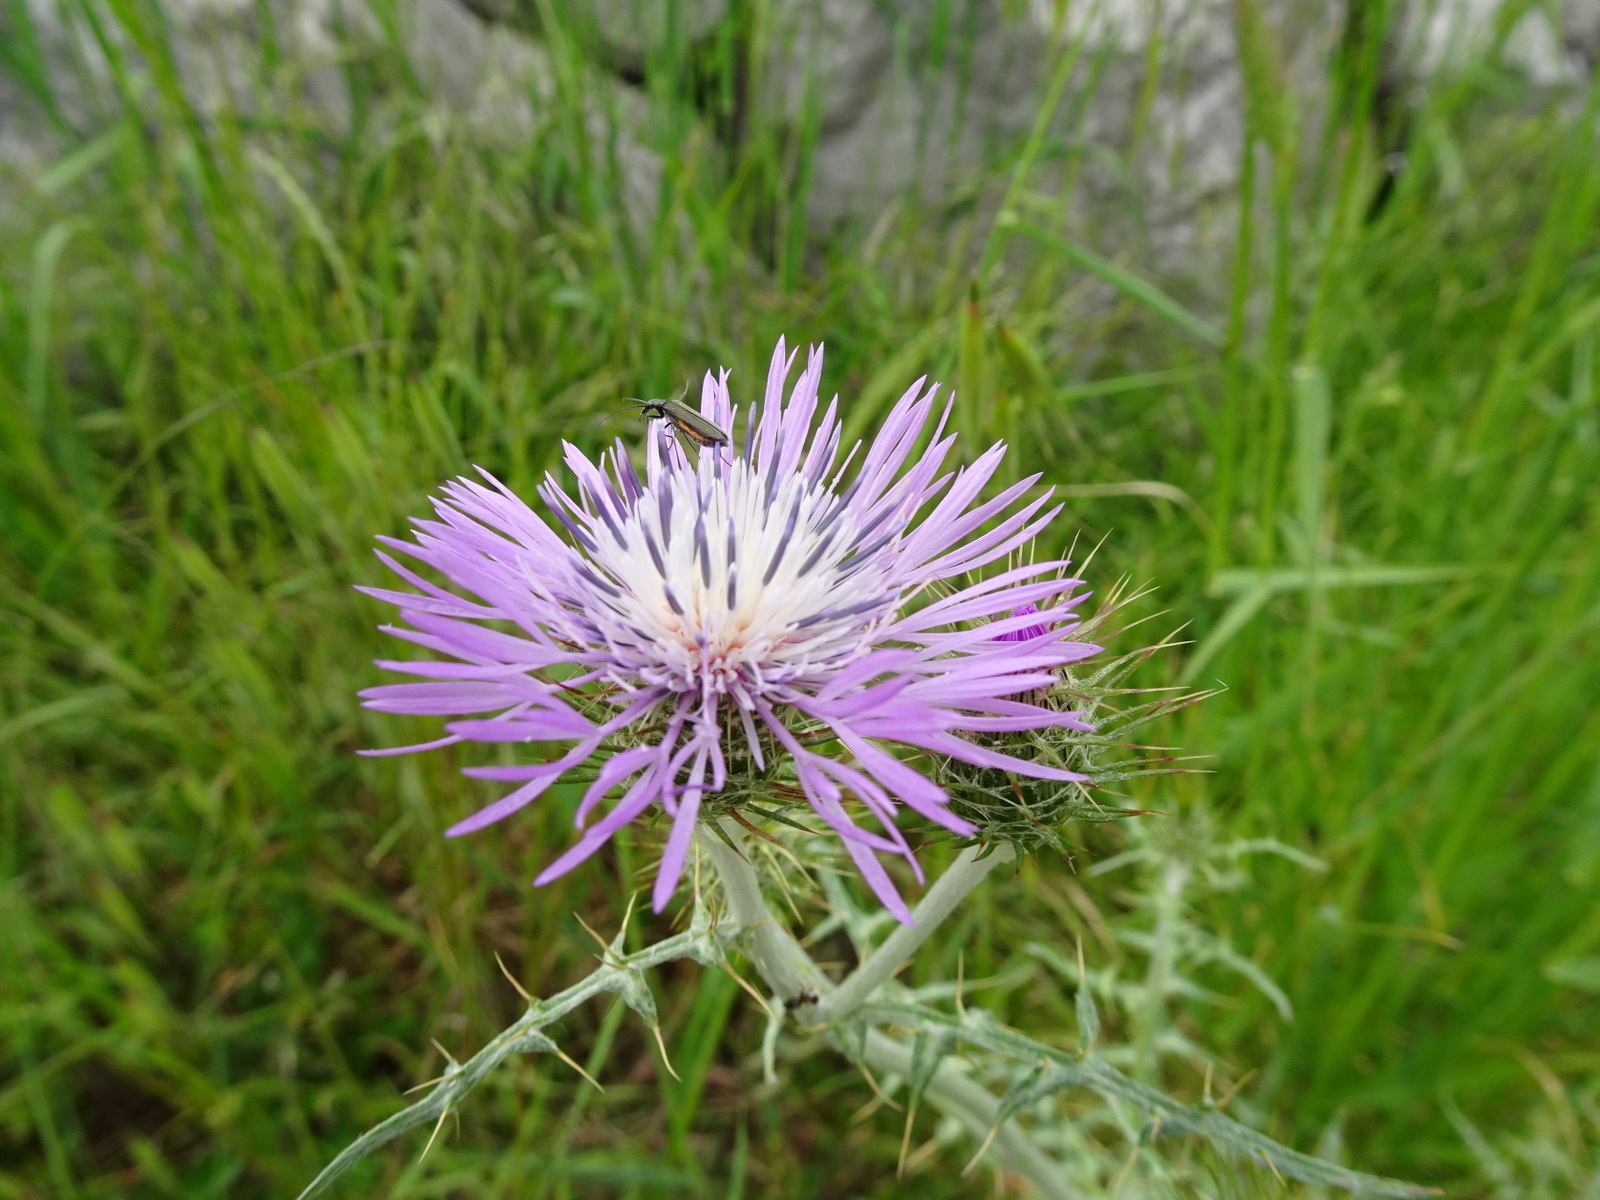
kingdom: Plantae
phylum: Tracheophyta
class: Magnoliopsida
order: Asterales
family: Asteraceae
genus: Galactites
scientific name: Galactites tomentosa
